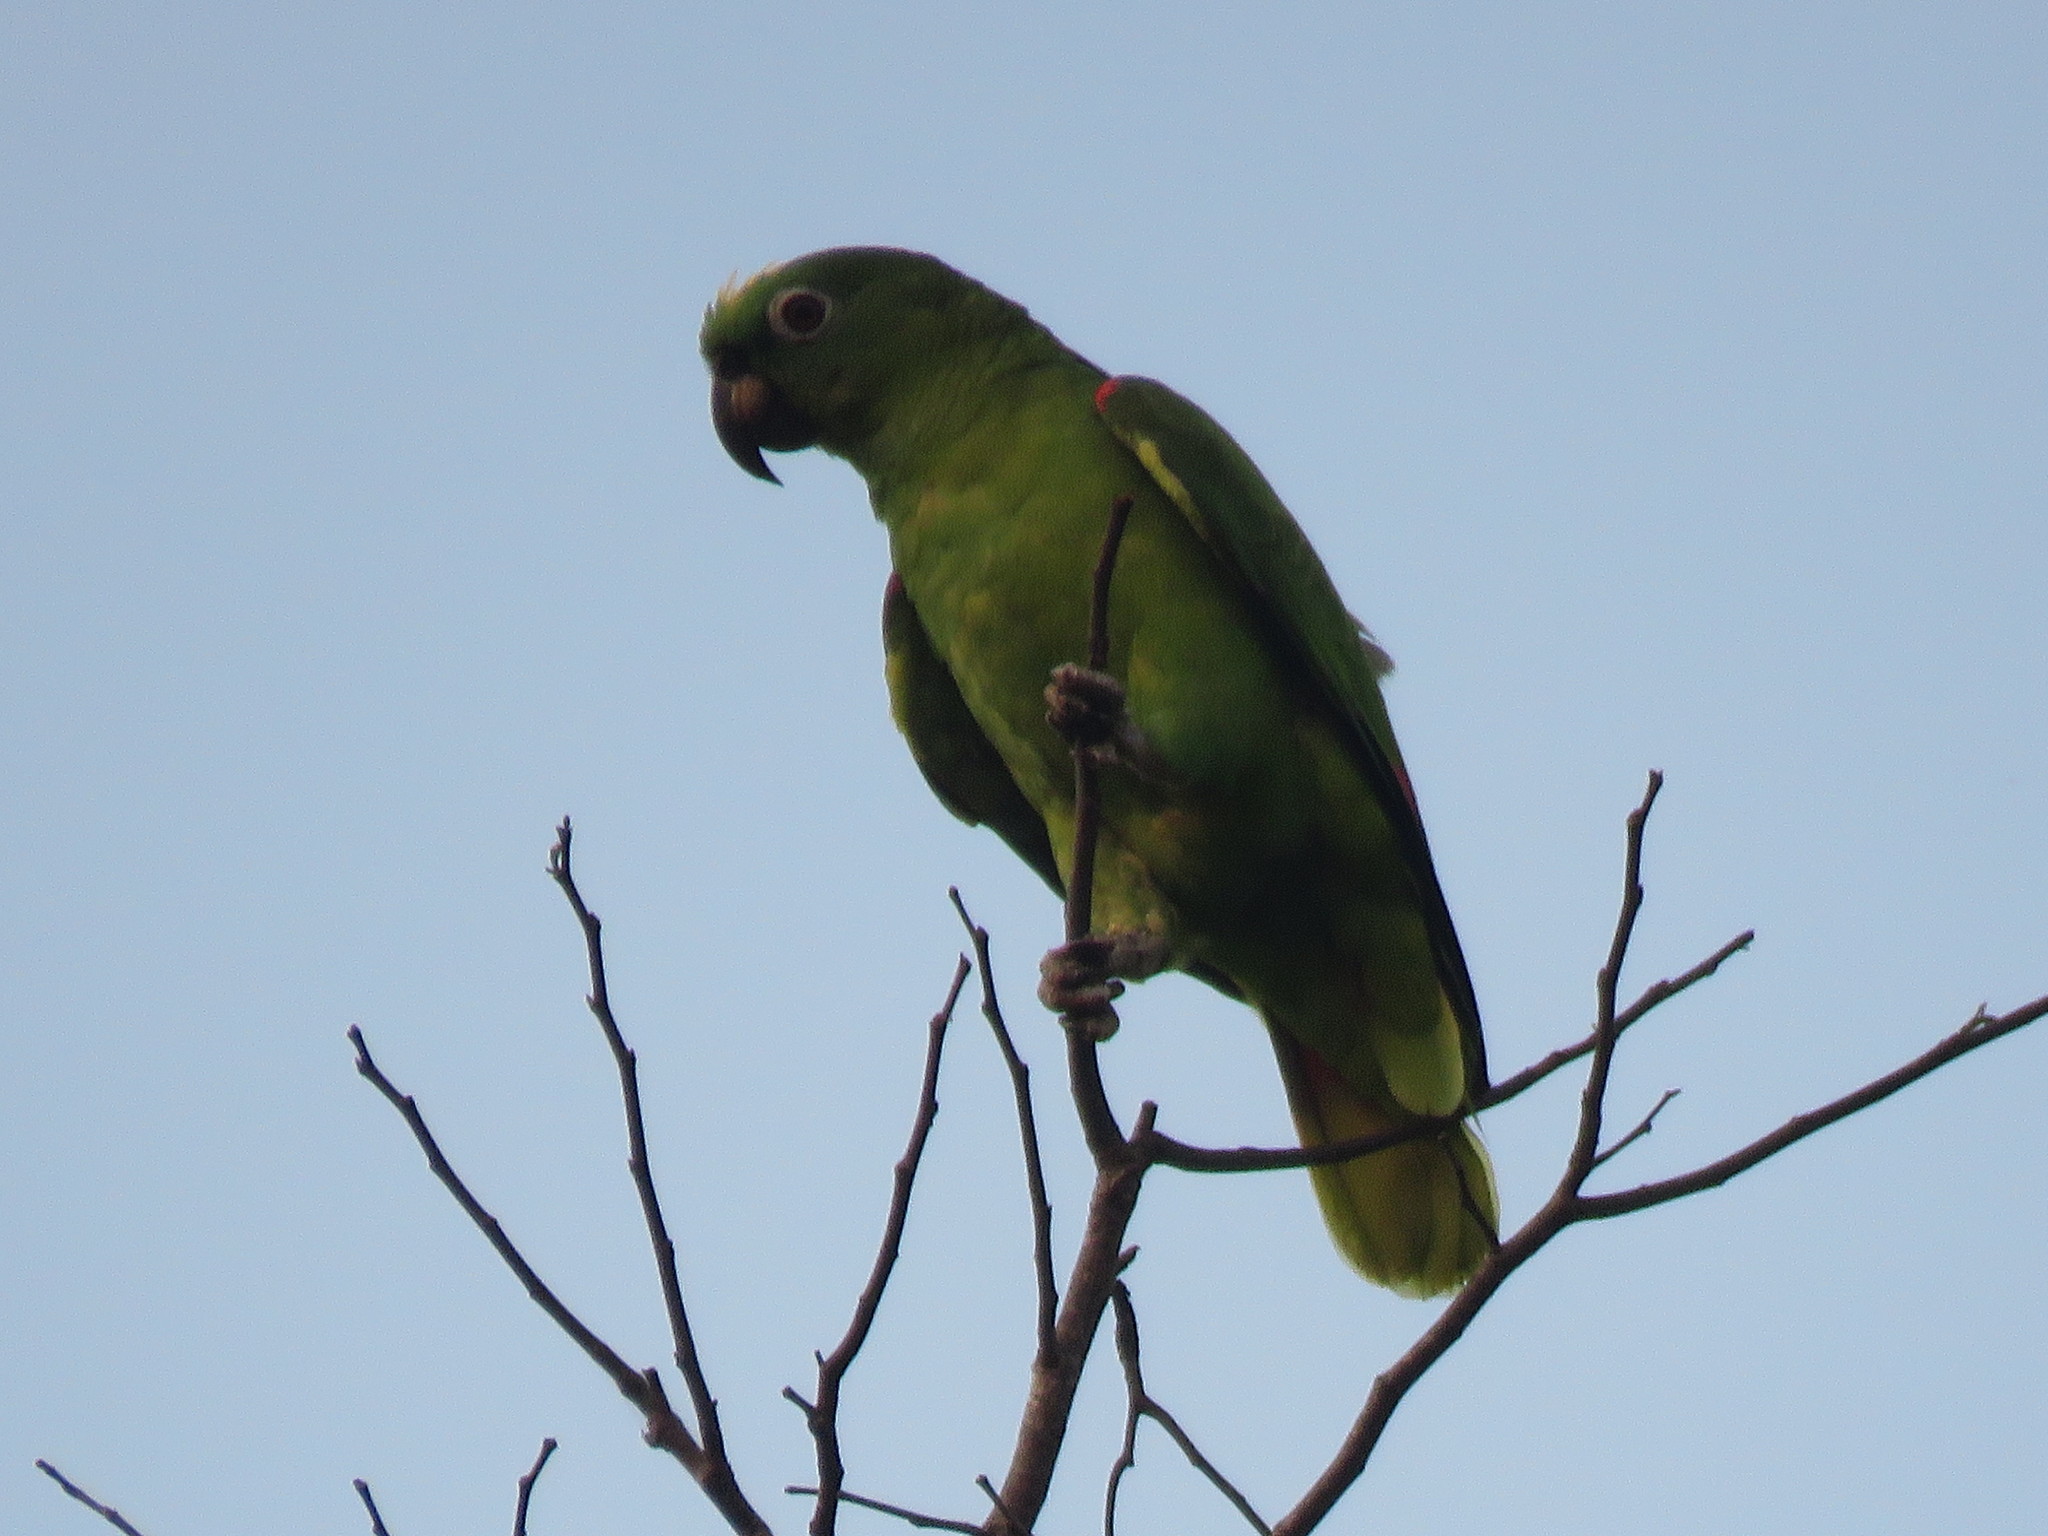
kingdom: Animalia
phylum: Chordata
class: Aves
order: Psittaciformes
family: Psittacidae
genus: Amazona
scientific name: Amazona ochrocephala
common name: Yellow-crowned amazon
